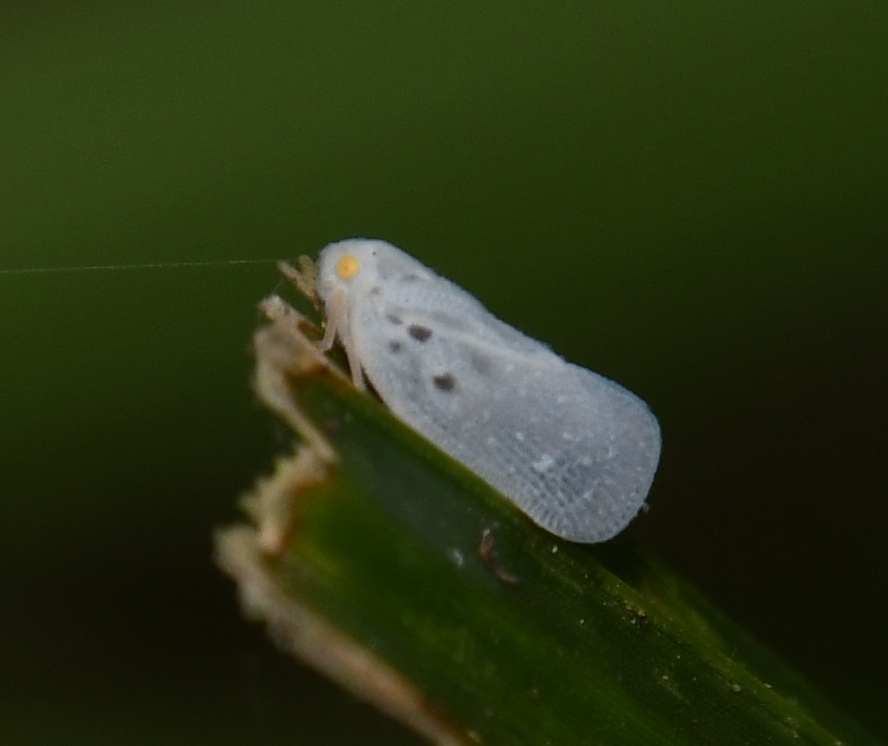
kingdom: Animalia
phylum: Arthropoda
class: Insecta
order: Hemiptera
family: Flatidae
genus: Metcalfa
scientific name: Metcalfa pruinosa
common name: Citrus flatid planthopper
